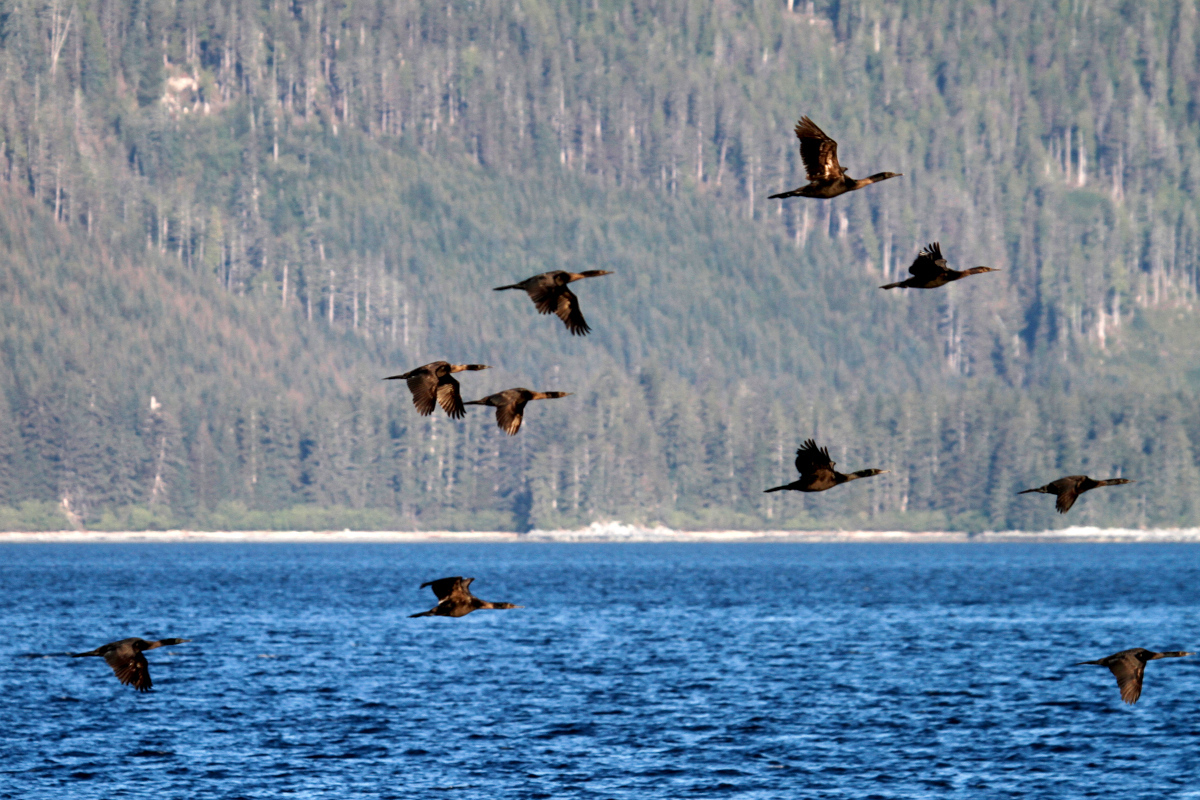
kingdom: Animalia
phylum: Chordata
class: Aves
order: Suliformes
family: Phalacrocoracidae
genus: Phalacrocorax
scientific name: Phalacrocorax pelagicus
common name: Pelagic cormorant
